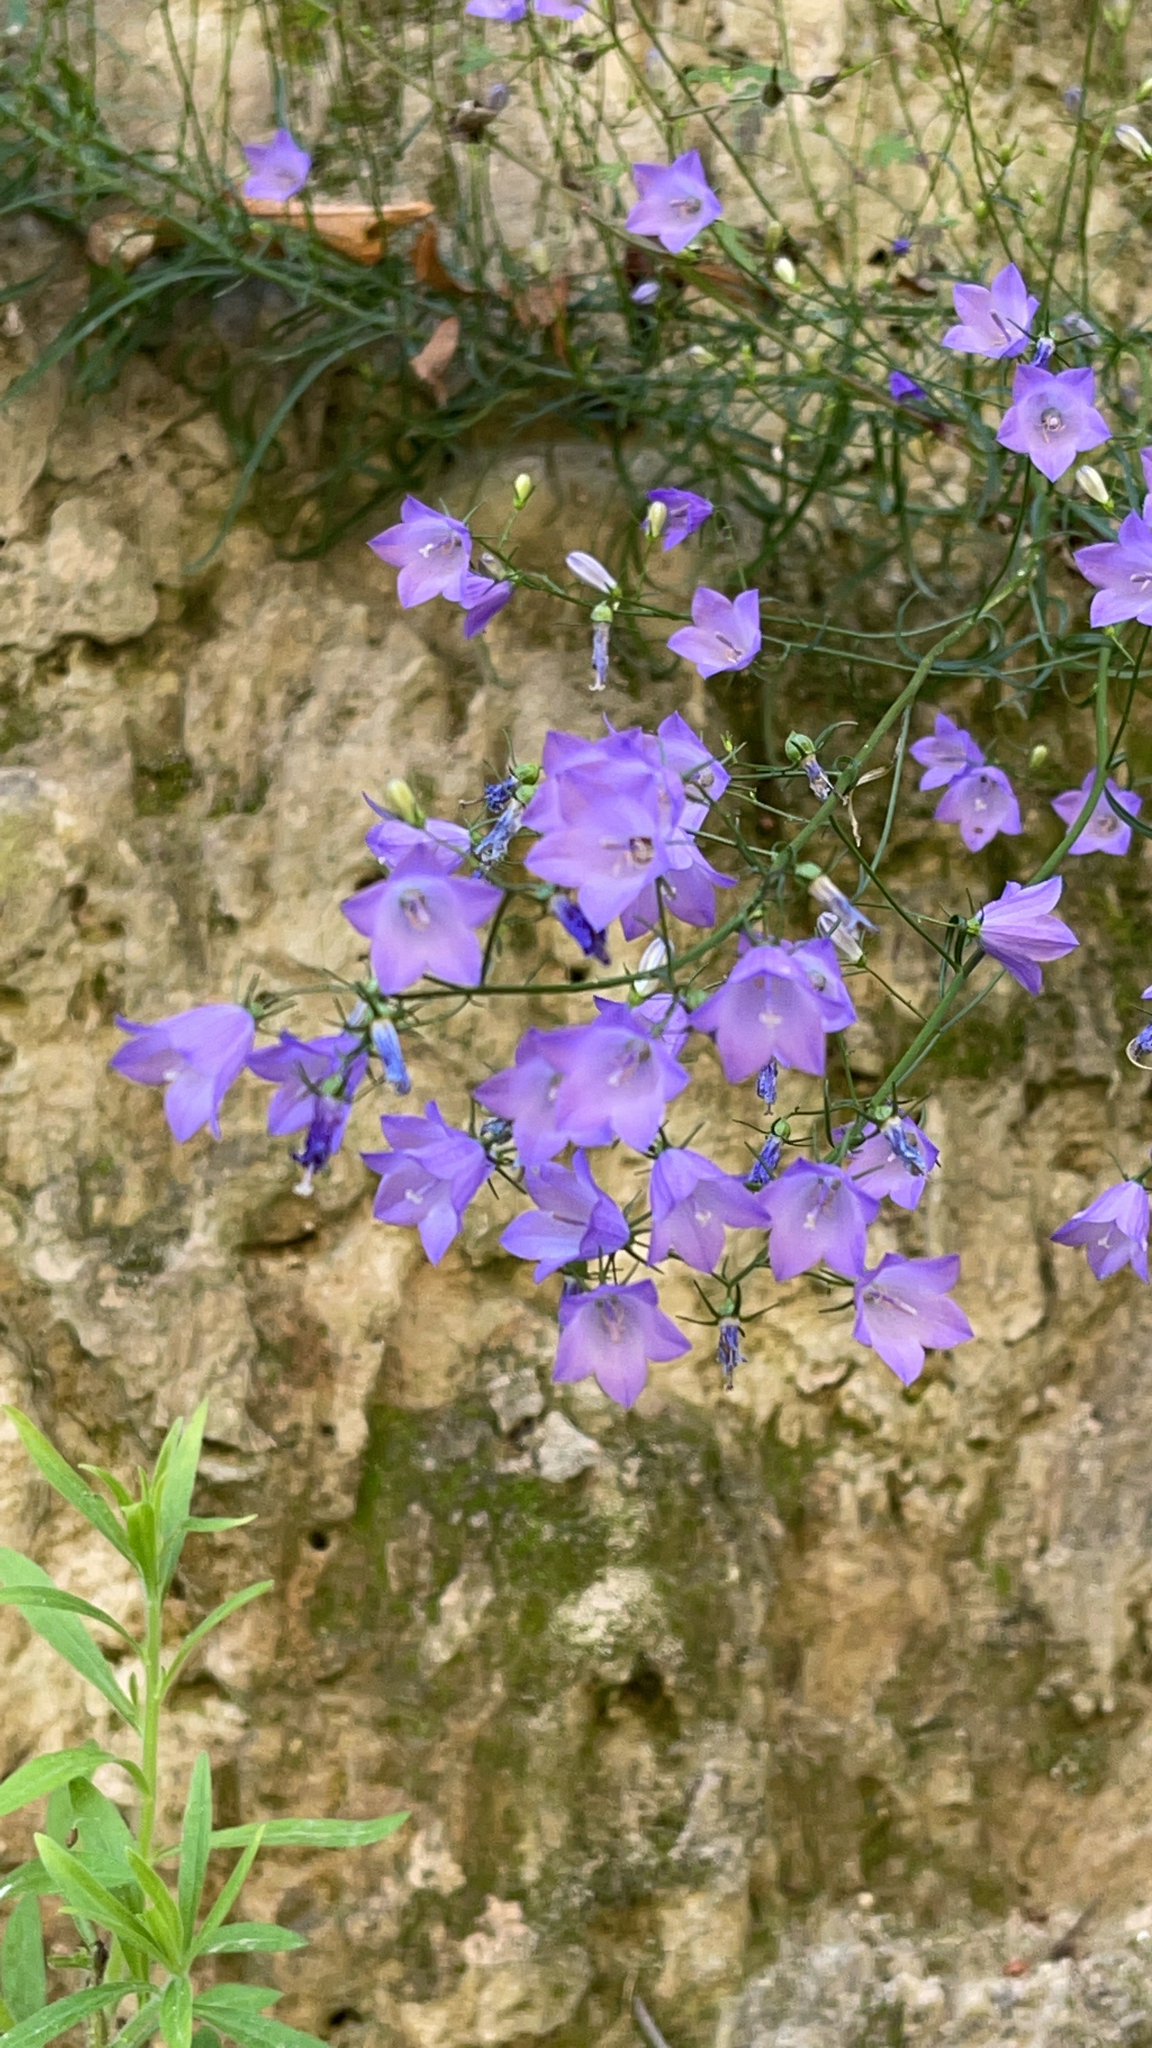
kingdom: Plantae
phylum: Tracheophyta
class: Magnoliopsida
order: Asterales
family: Campanulaceae
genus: Campanula
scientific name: Campanula rotundifolia
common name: Harebell
